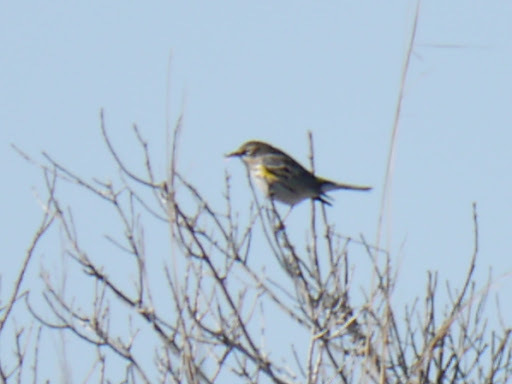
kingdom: Animalia
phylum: Chordata
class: Aves
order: Passeriformes
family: Parulidae
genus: Setophaga
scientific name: Setophaga coronata
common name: Myrtle warbler
